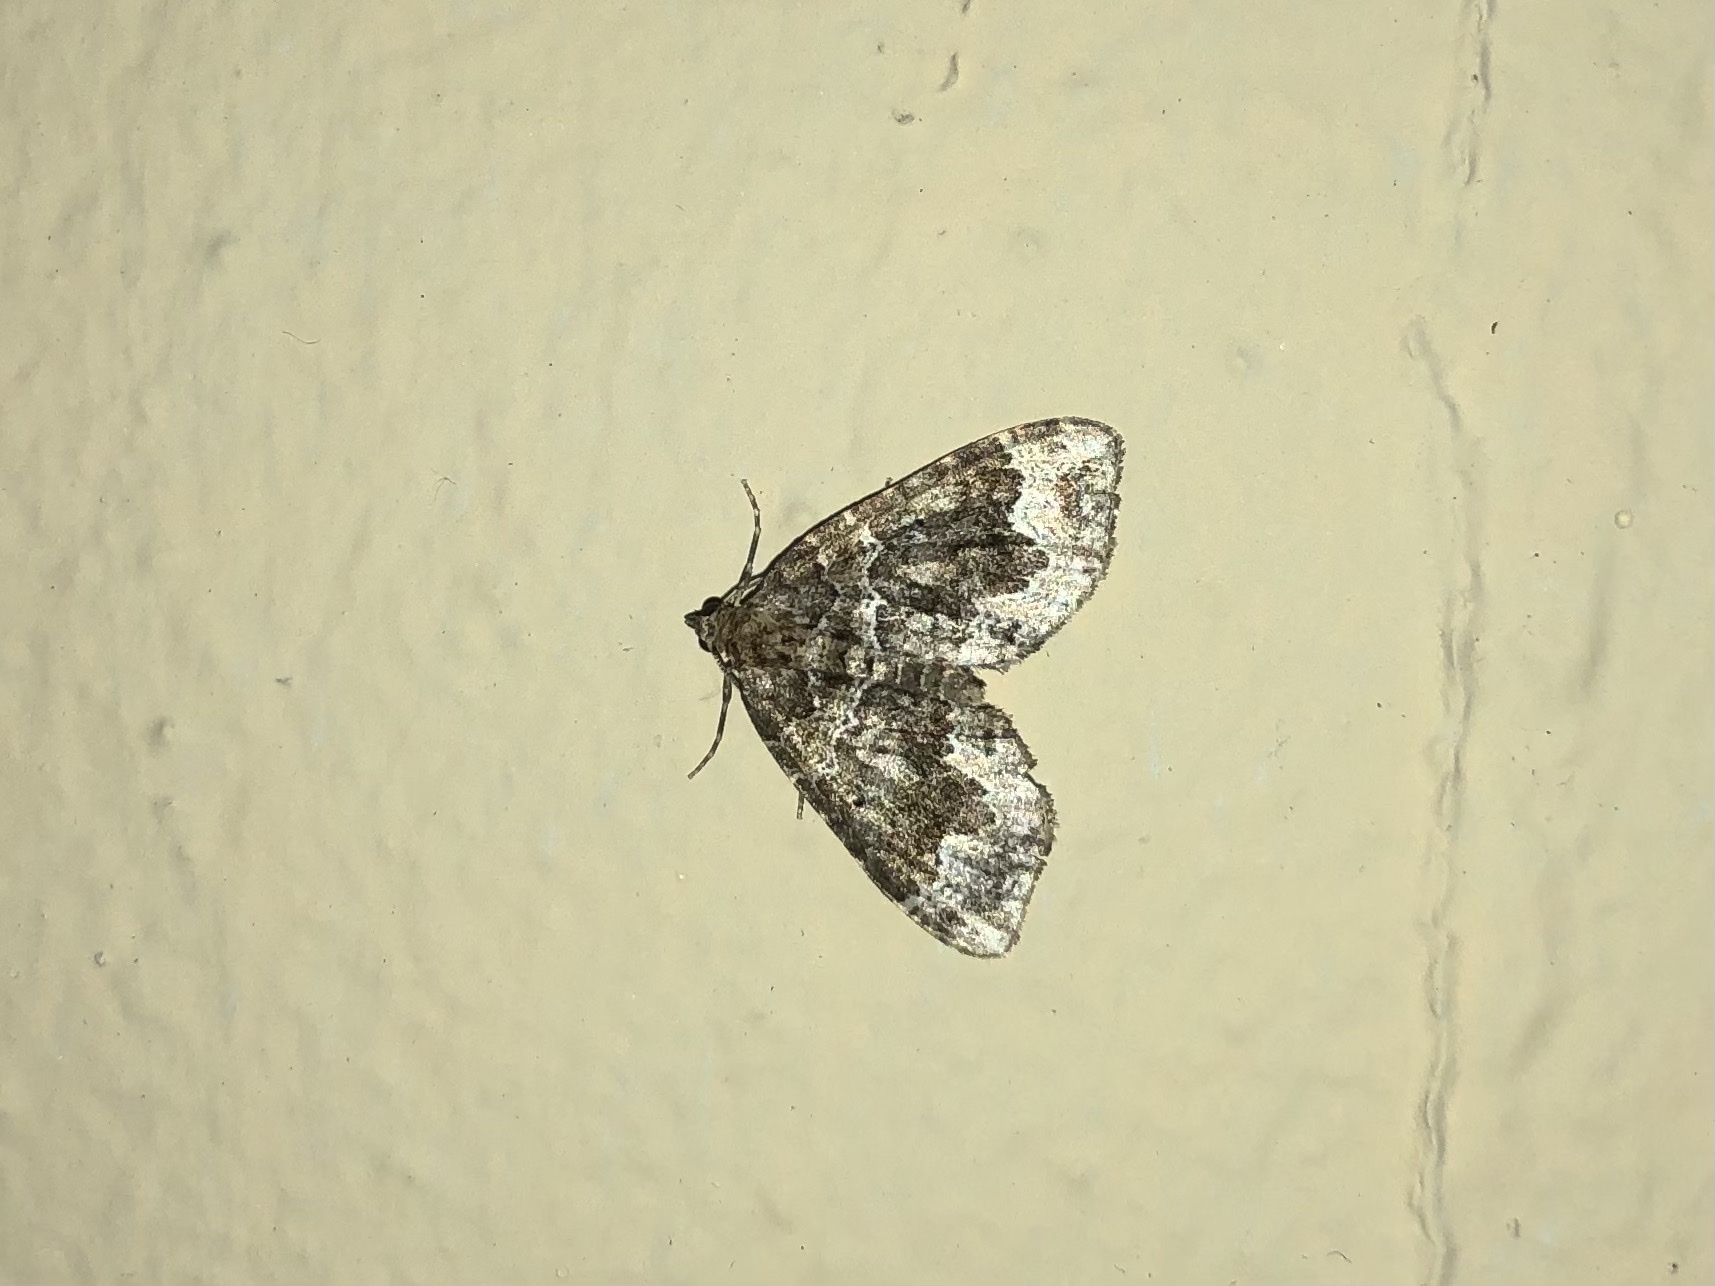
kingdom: Animalia
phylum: Arthropoda
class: Insecta
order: Lepidoptera
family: Geometridae
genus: Lampropteryx
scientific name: Lampropteryx otregiata
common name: Devon carpet
